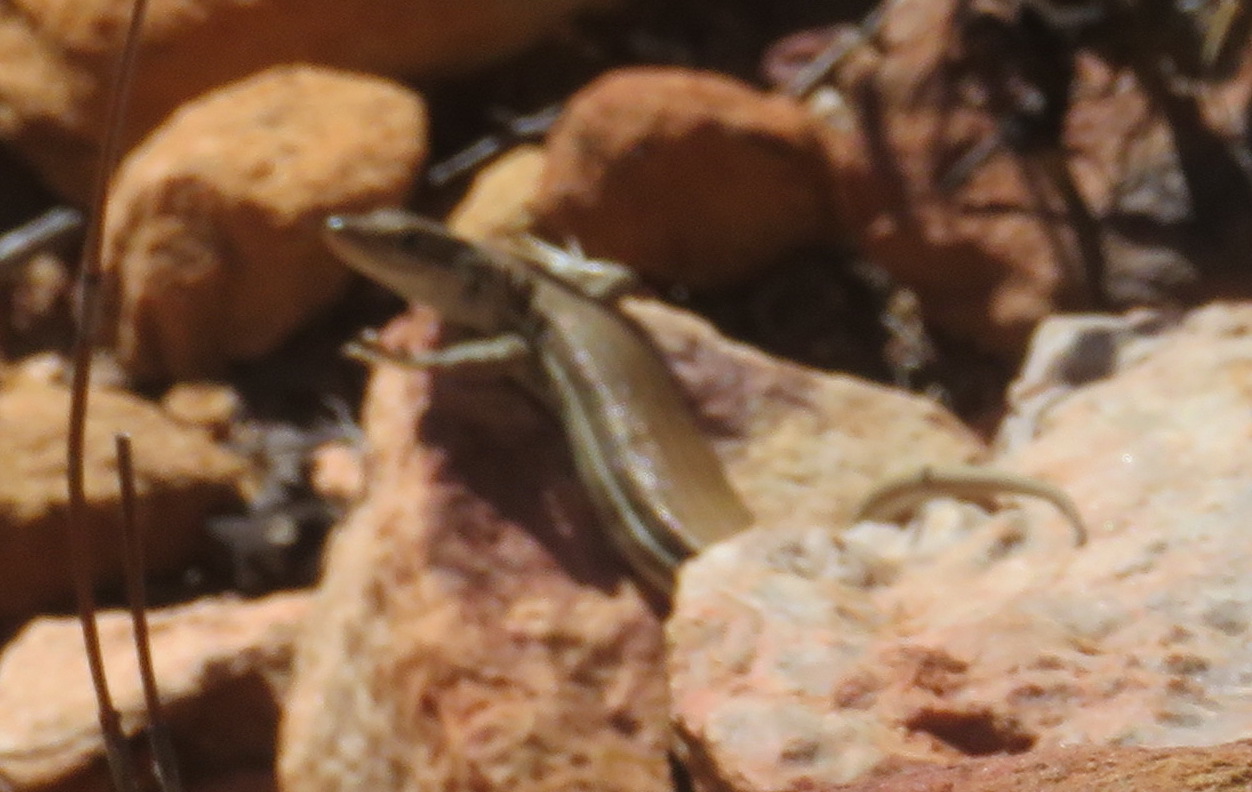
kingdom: Animalia
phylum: Chordata
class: Squamata
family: Lacertidae
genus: Pedioplanis
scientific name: Pedioplanis burchelli
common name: Burchell's sand lizard
